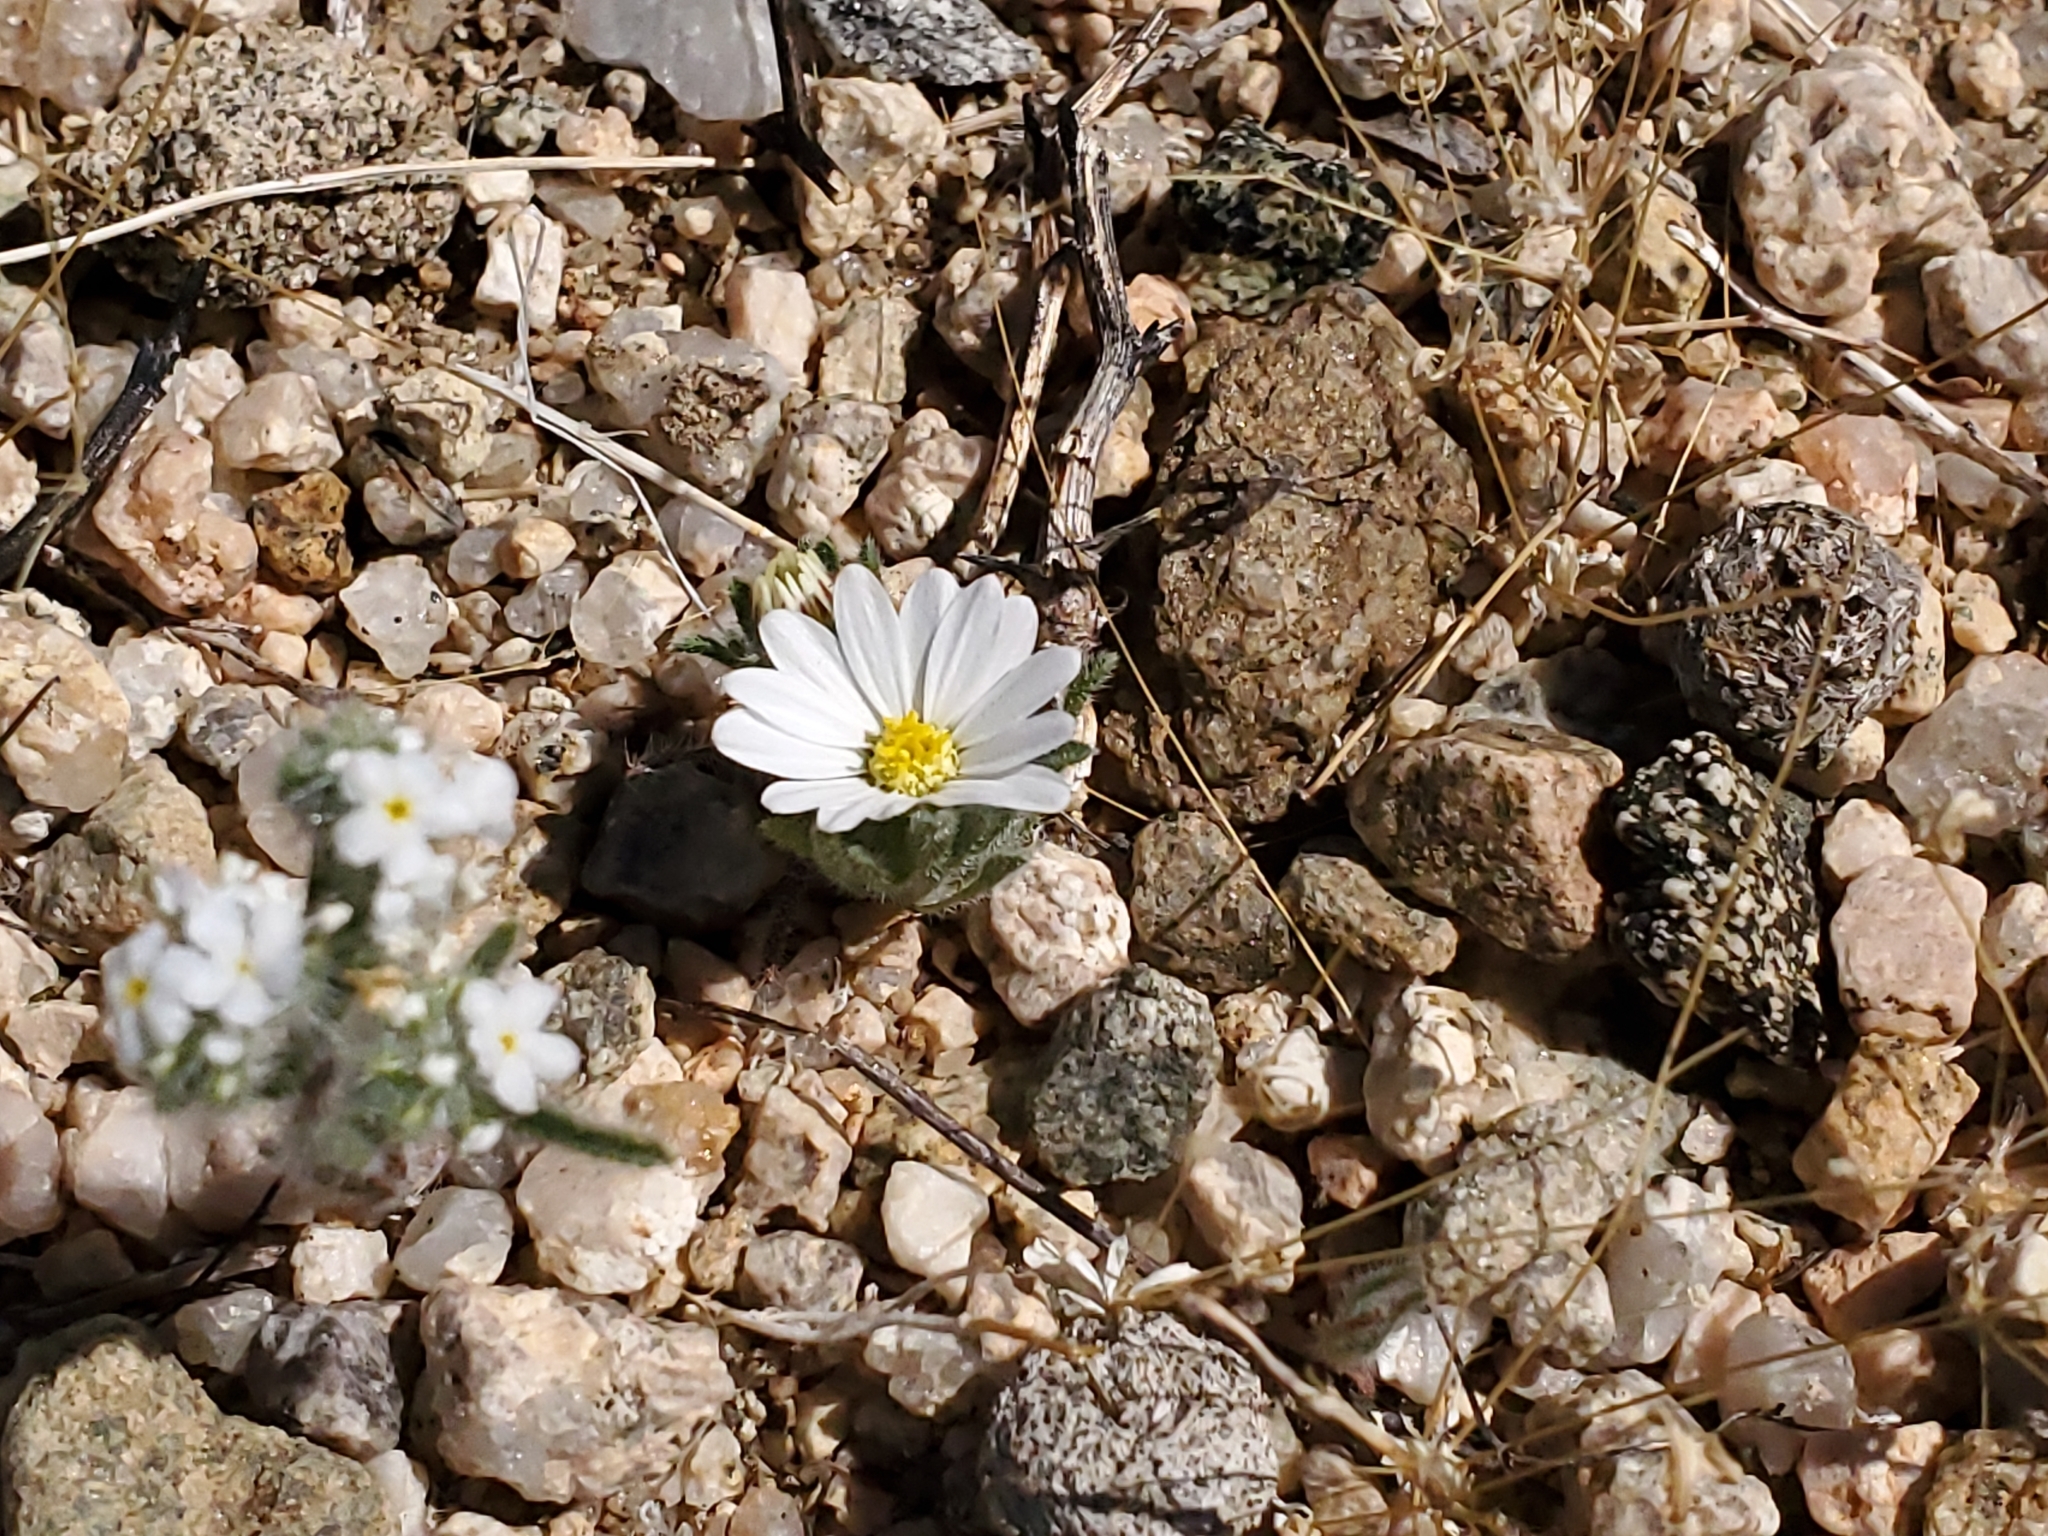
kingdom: Plantae
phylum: Tracheophyta
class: Magnoliopsida
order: Asterales
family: Asteraceae
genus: Monoptilon
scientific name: Monoptilon bellioides
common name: Bristly desertstar
